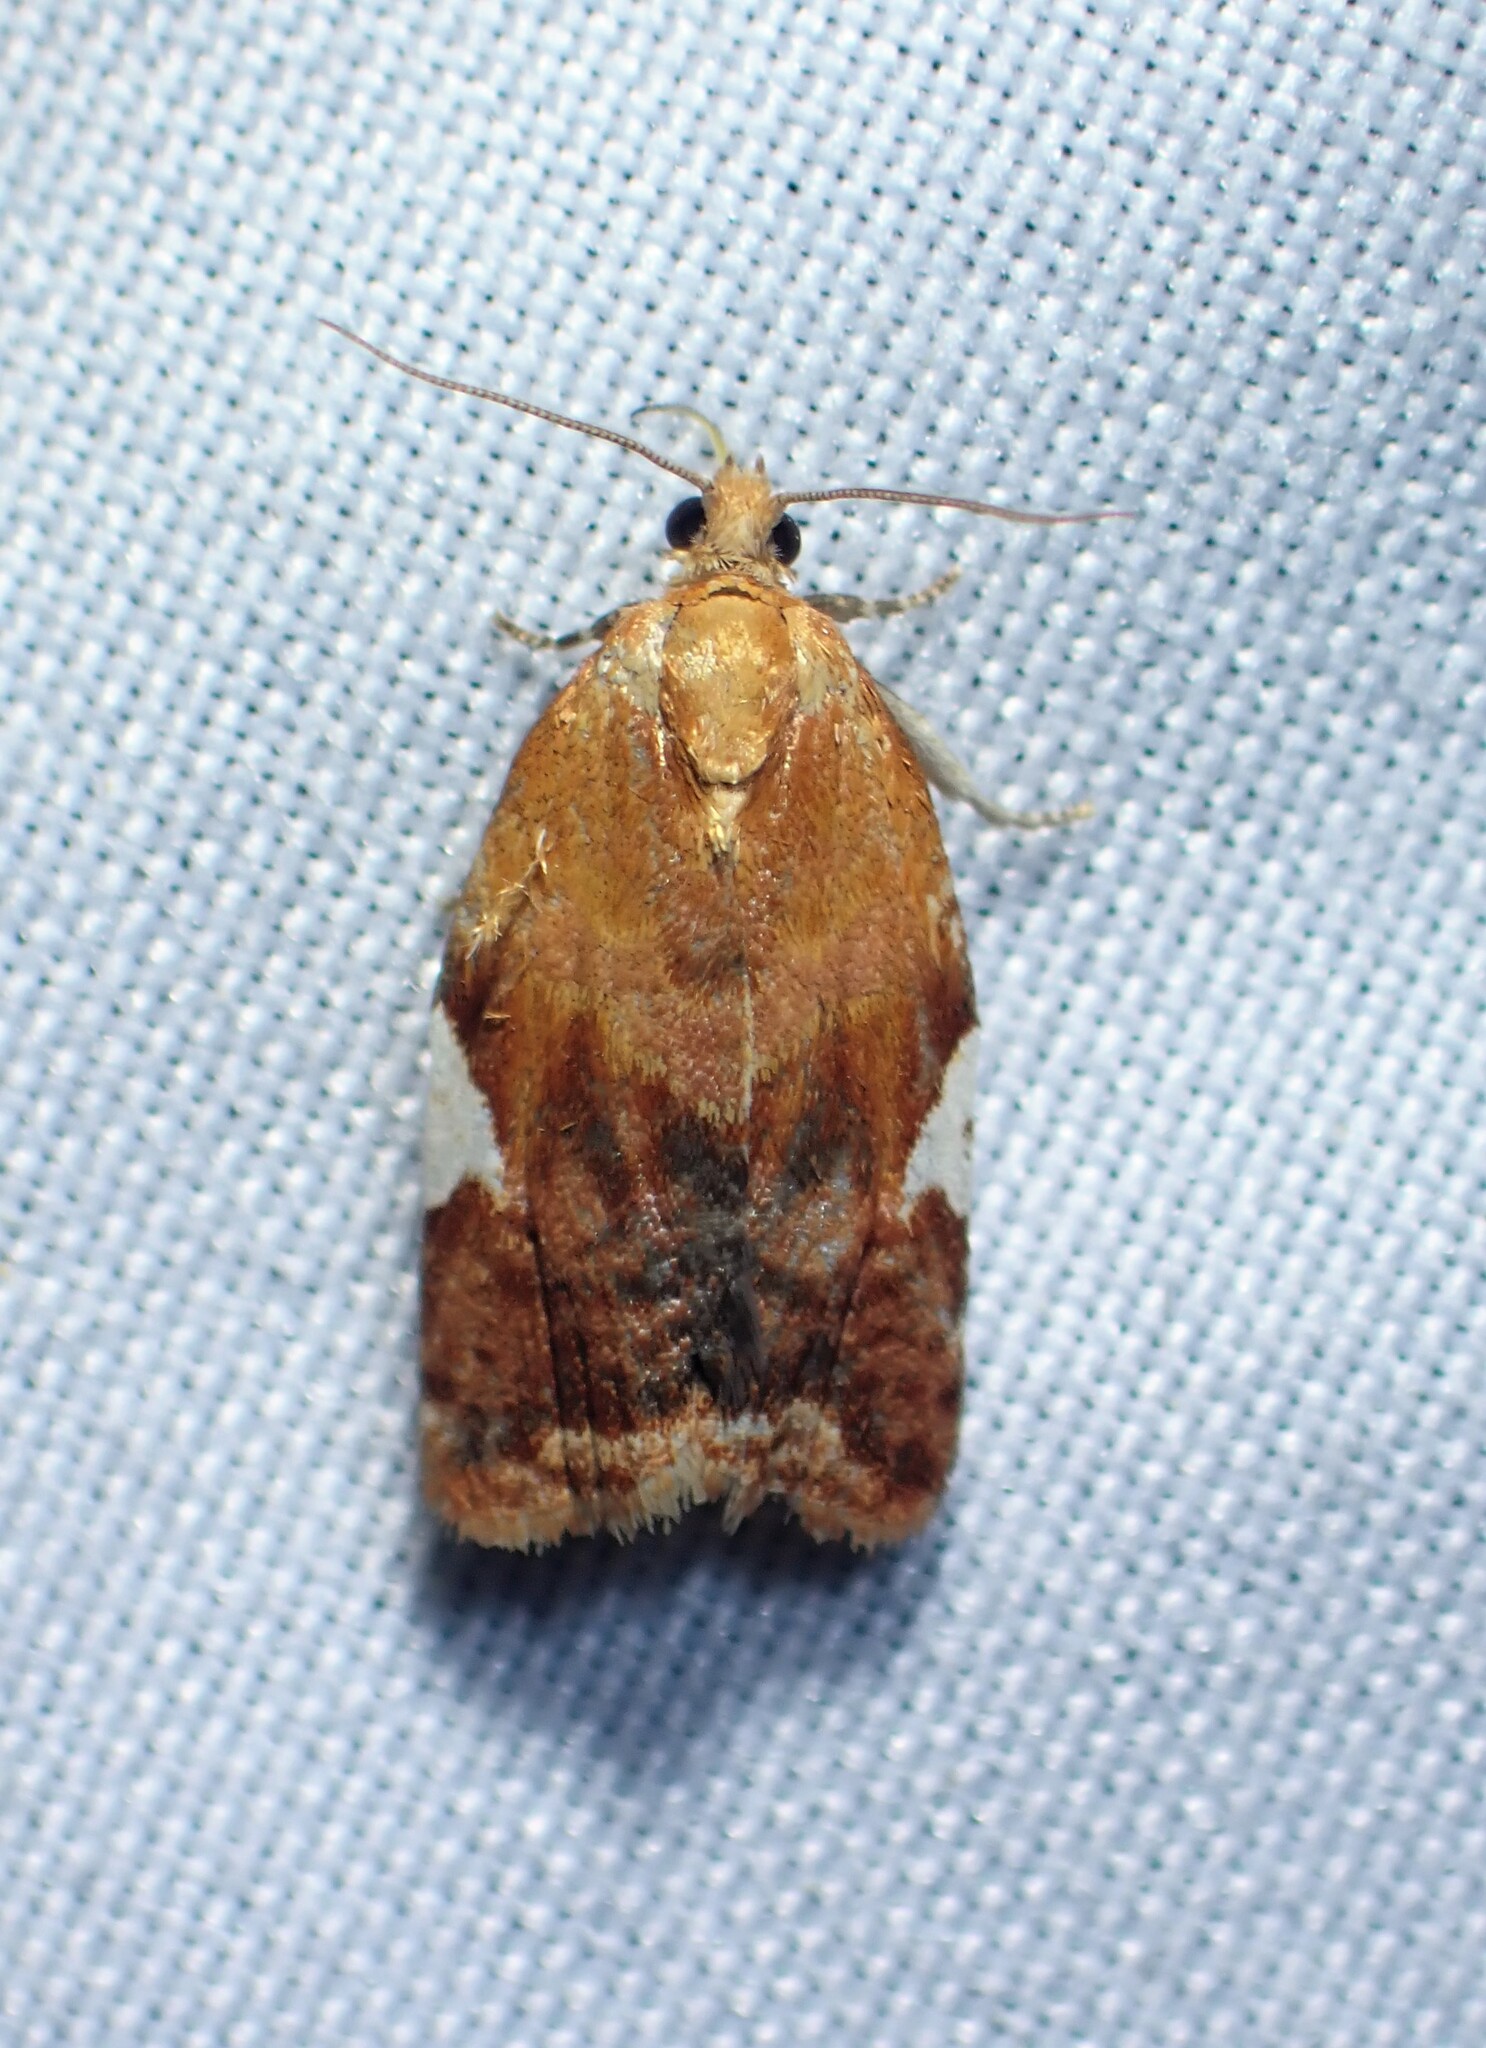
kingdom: Animalia
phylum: Arthropoda
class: Insecta
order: Lepidoptera
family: Tortricidae
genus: Clepsis
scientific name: Clepsis persicana
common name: White triangle tortrix
